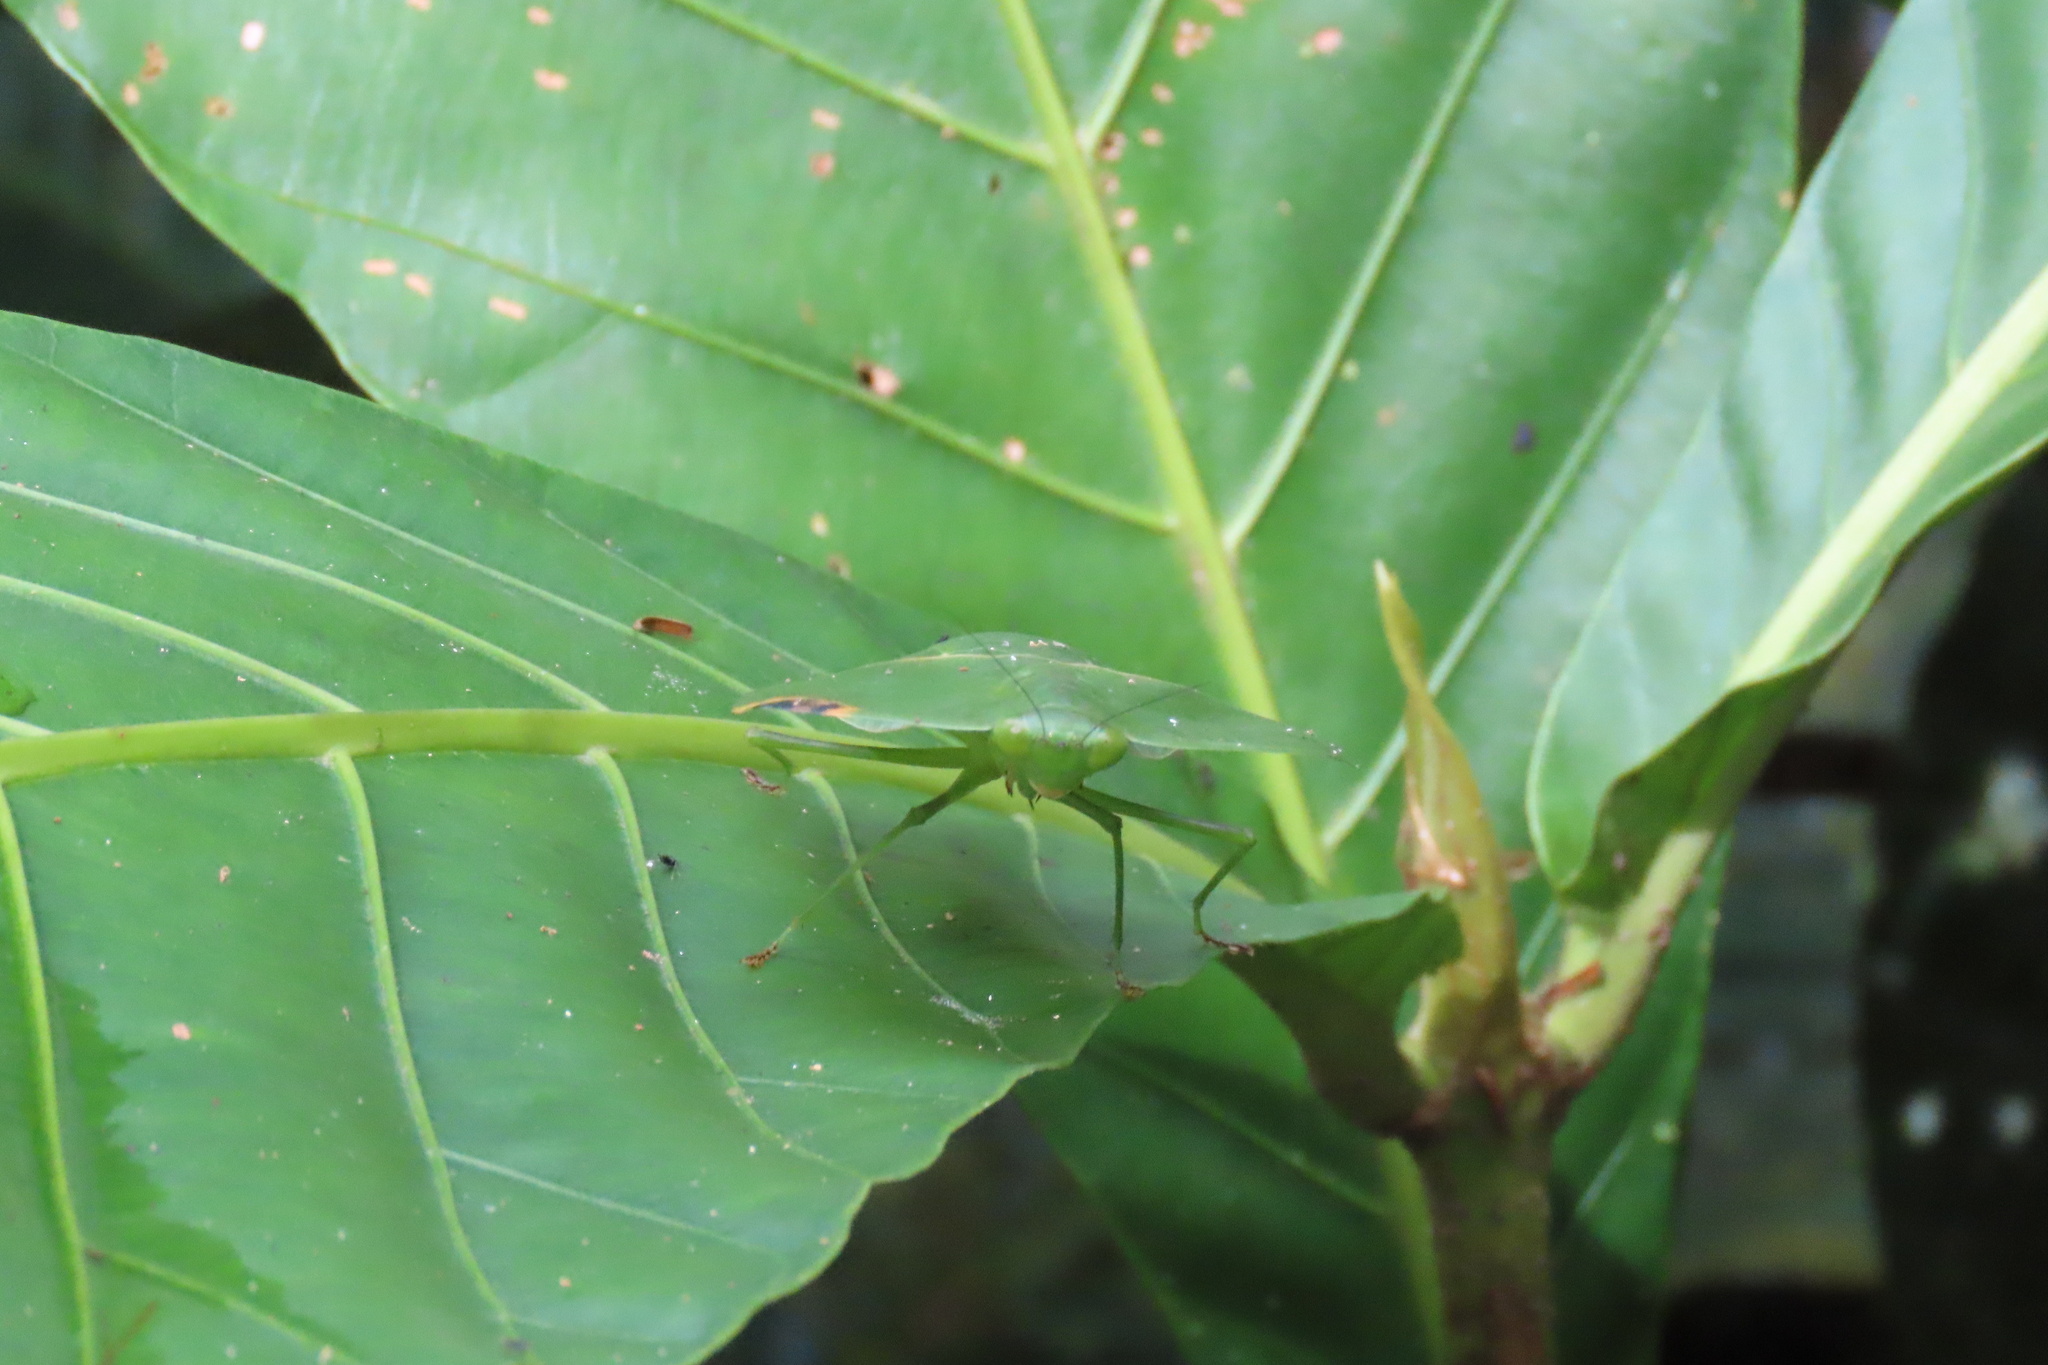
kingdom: Animalia
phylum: Arthropoda
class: Insecta
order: Mantodea
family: Mantidae
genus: Choeradodis
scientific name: Choeradodis rhombicollis
